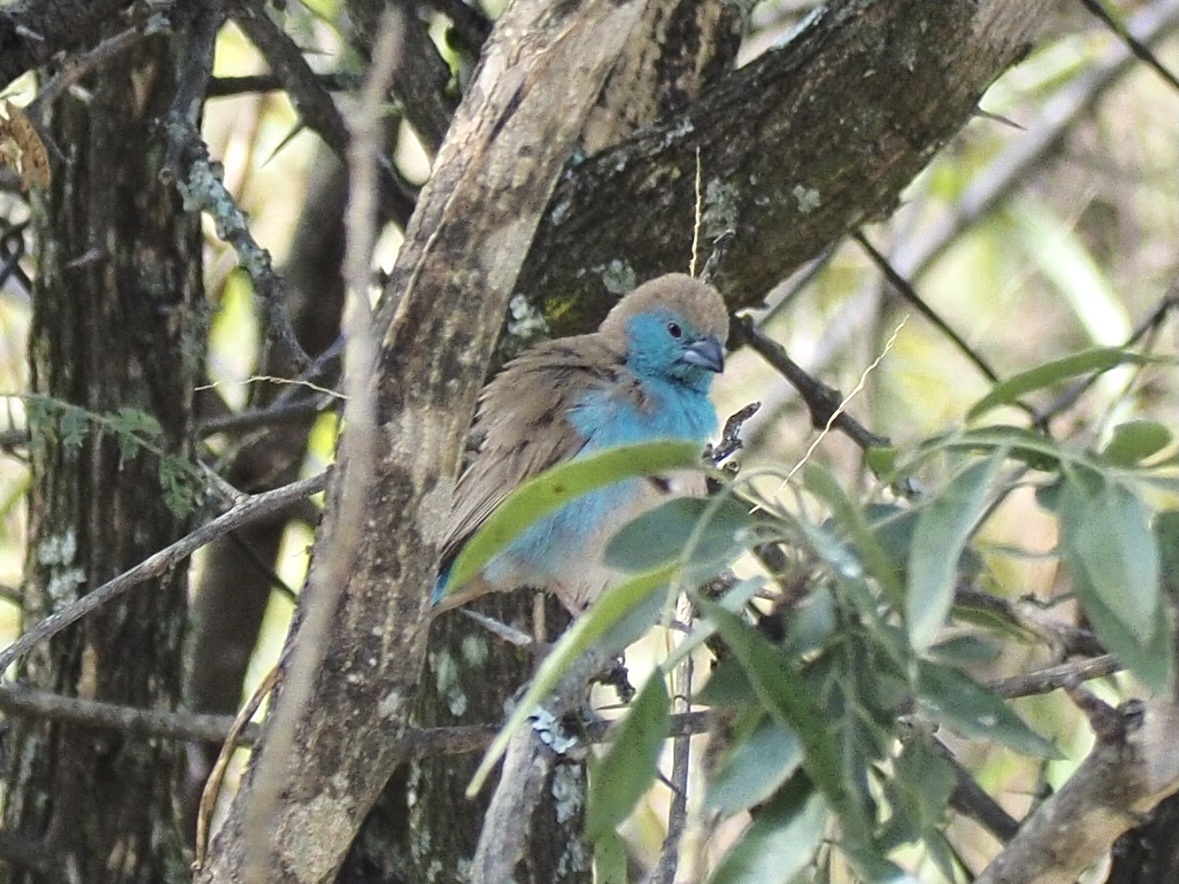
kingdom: Animalia
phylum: Chordata
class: Aves
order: Passeriformes
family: Estrildidae
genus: Uraeginthus
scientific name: Uraeginthus angolensis
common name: Blue waxbill
